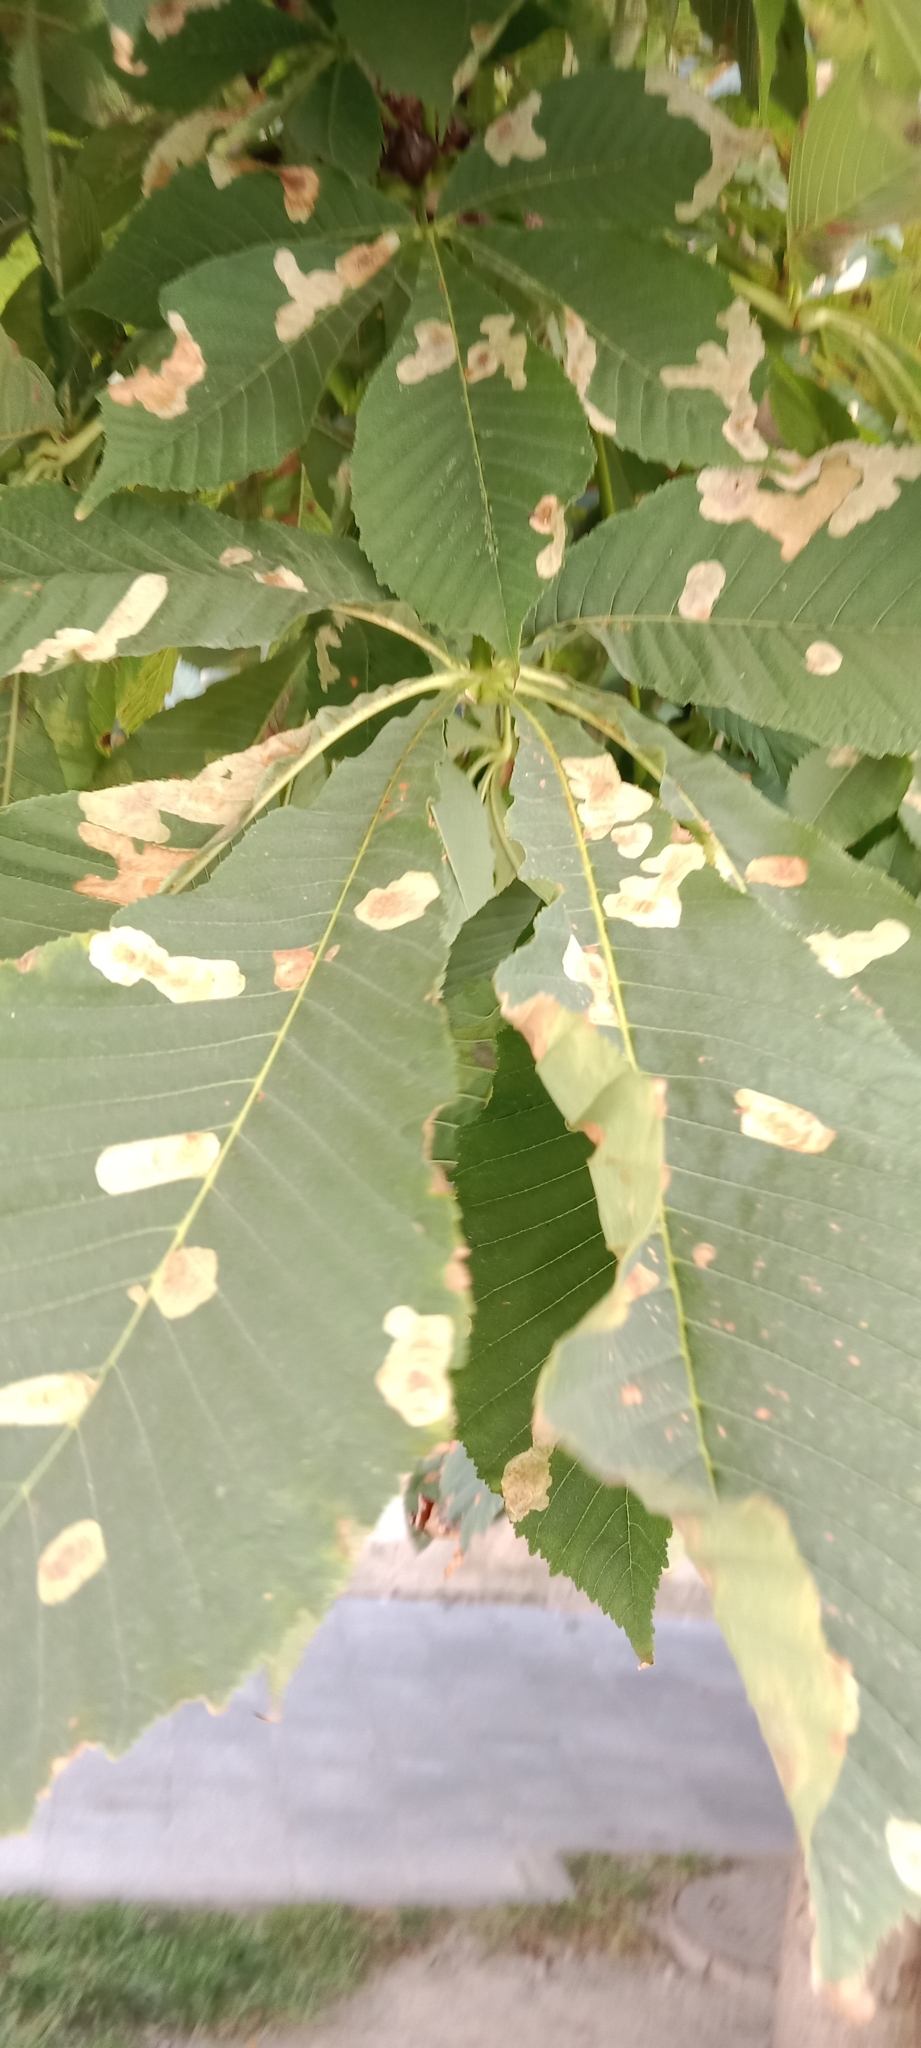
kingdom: Animalia
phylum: Arthropoda
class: Insecta
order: Lepidoptera
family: Gracillariidae
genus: Cameraria
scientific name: Cameraria ohridella
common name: Horse-chestnut leaf-miner
